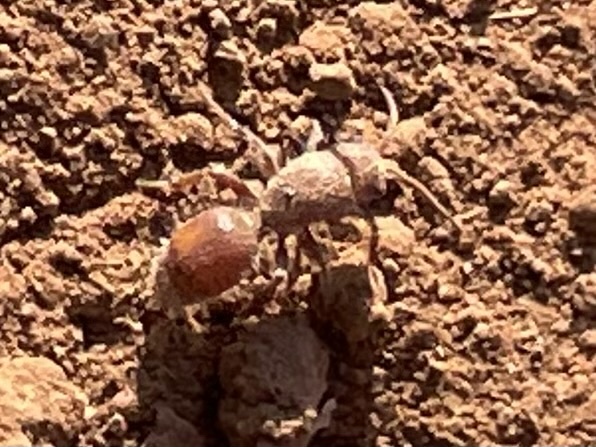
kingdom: Animalia
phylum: Arthropoda
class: Insecta
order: Hymenoptera
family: Mutillidae
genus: Dasymutilla
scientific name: Dasymutilla
